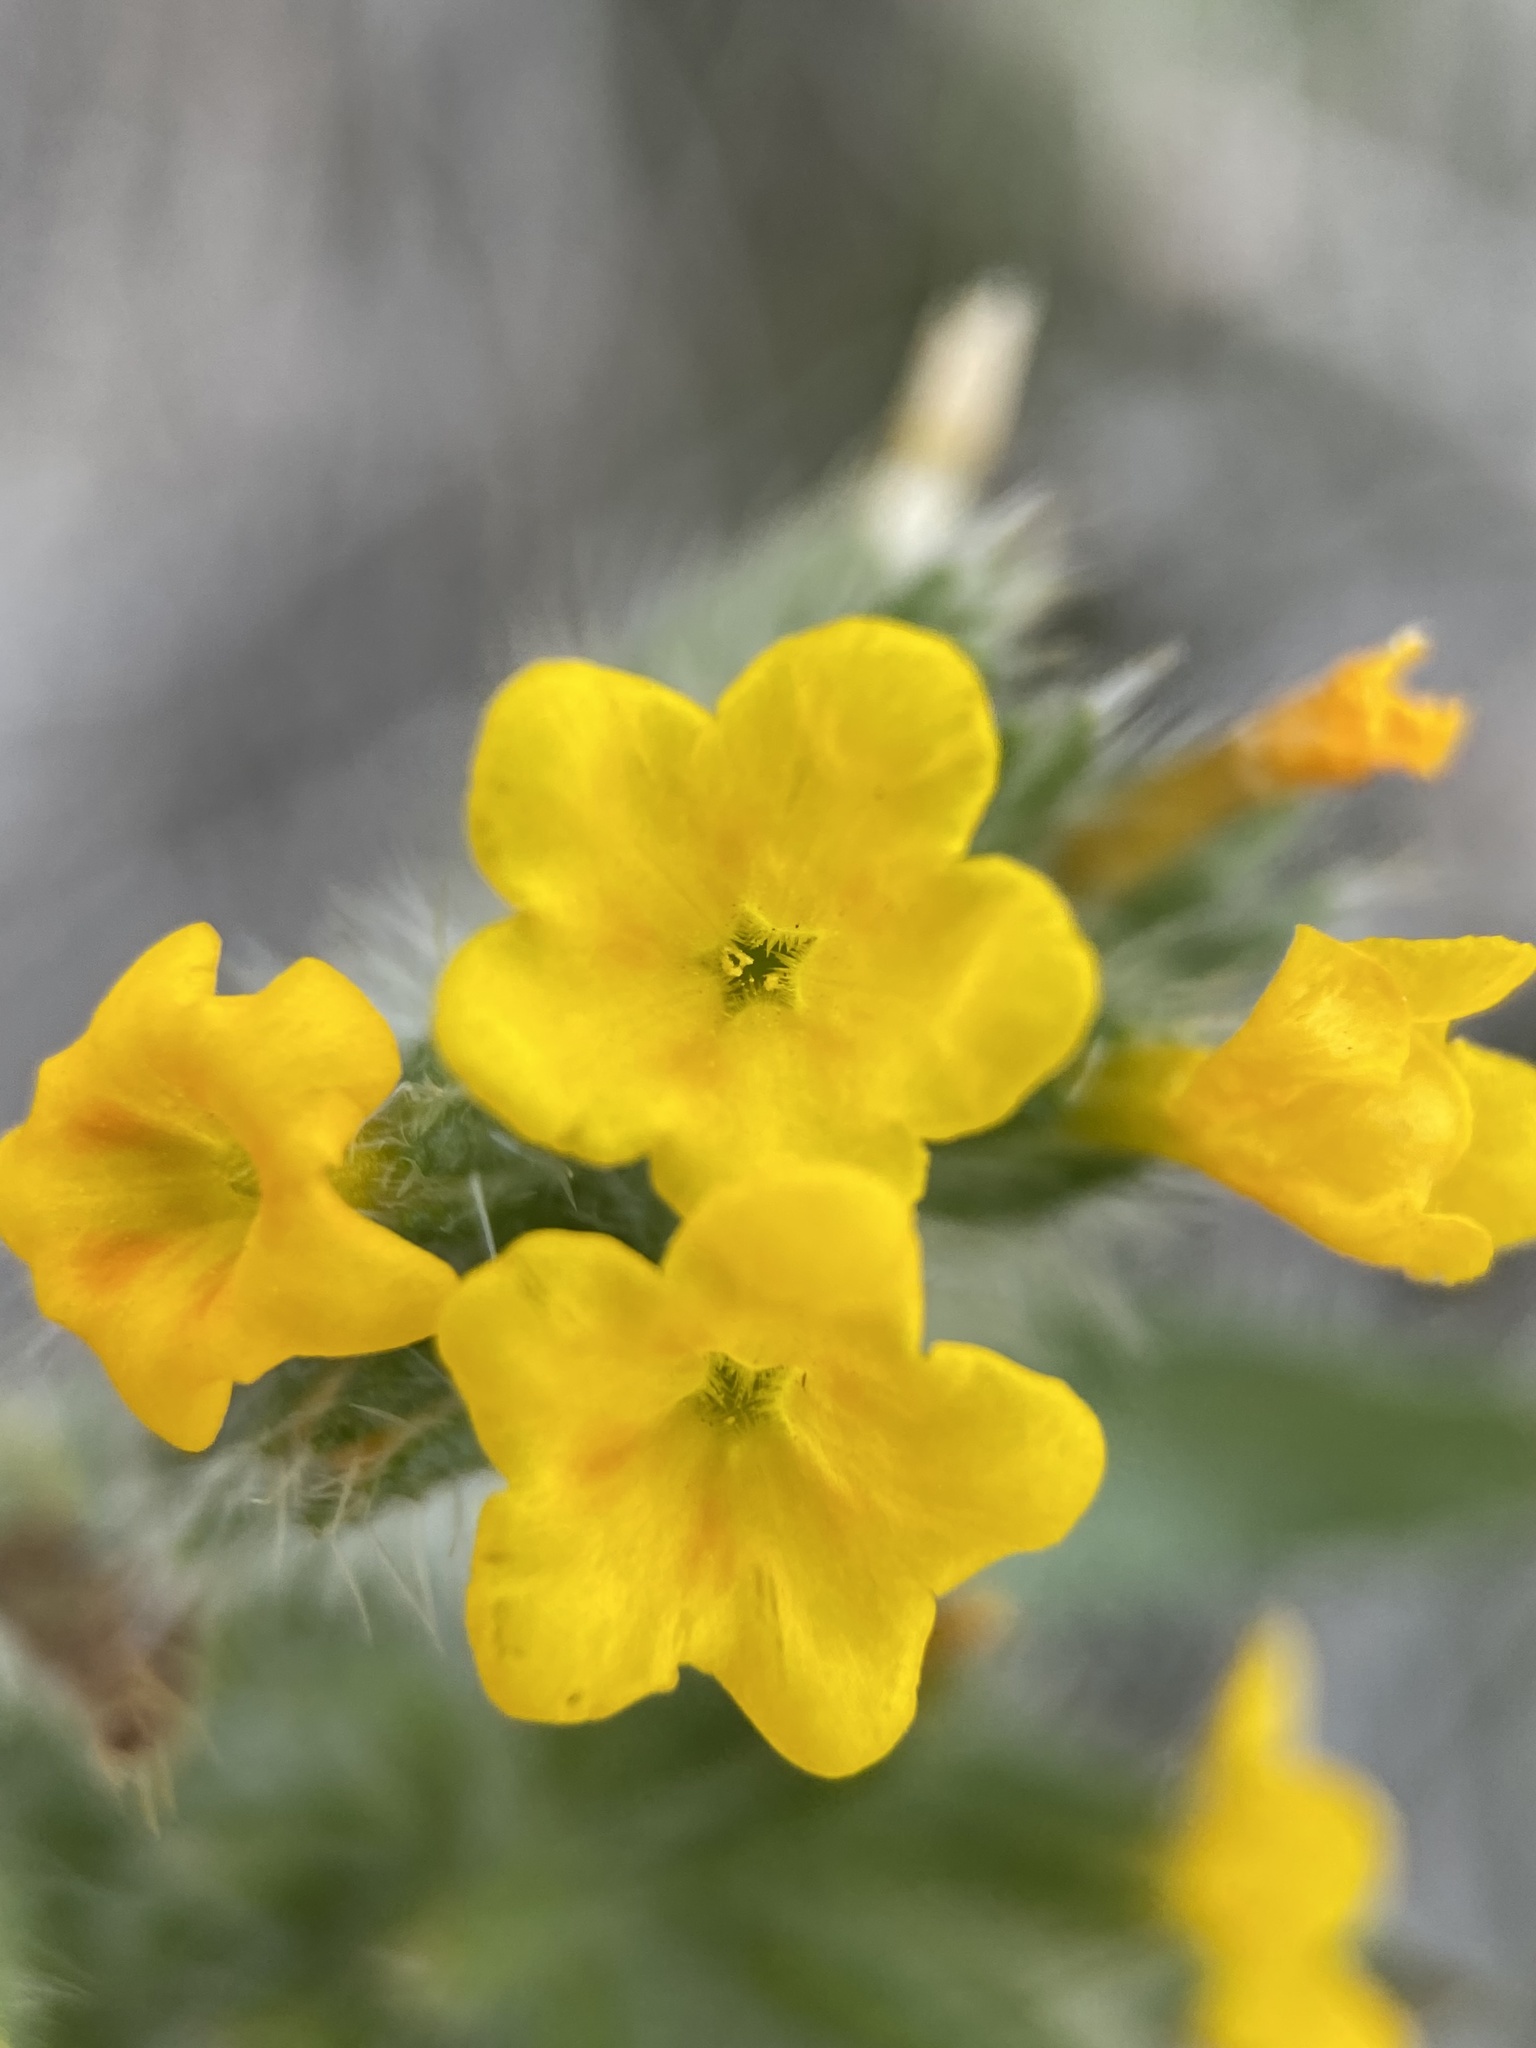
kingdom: Plantae
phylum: Tracheophyta
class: Magnoliopsida
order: Boraginales
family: Boraginaceae
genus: Amsinckia
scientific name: Amsinckia lycopsoides
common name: Tarweed fiddleneck
